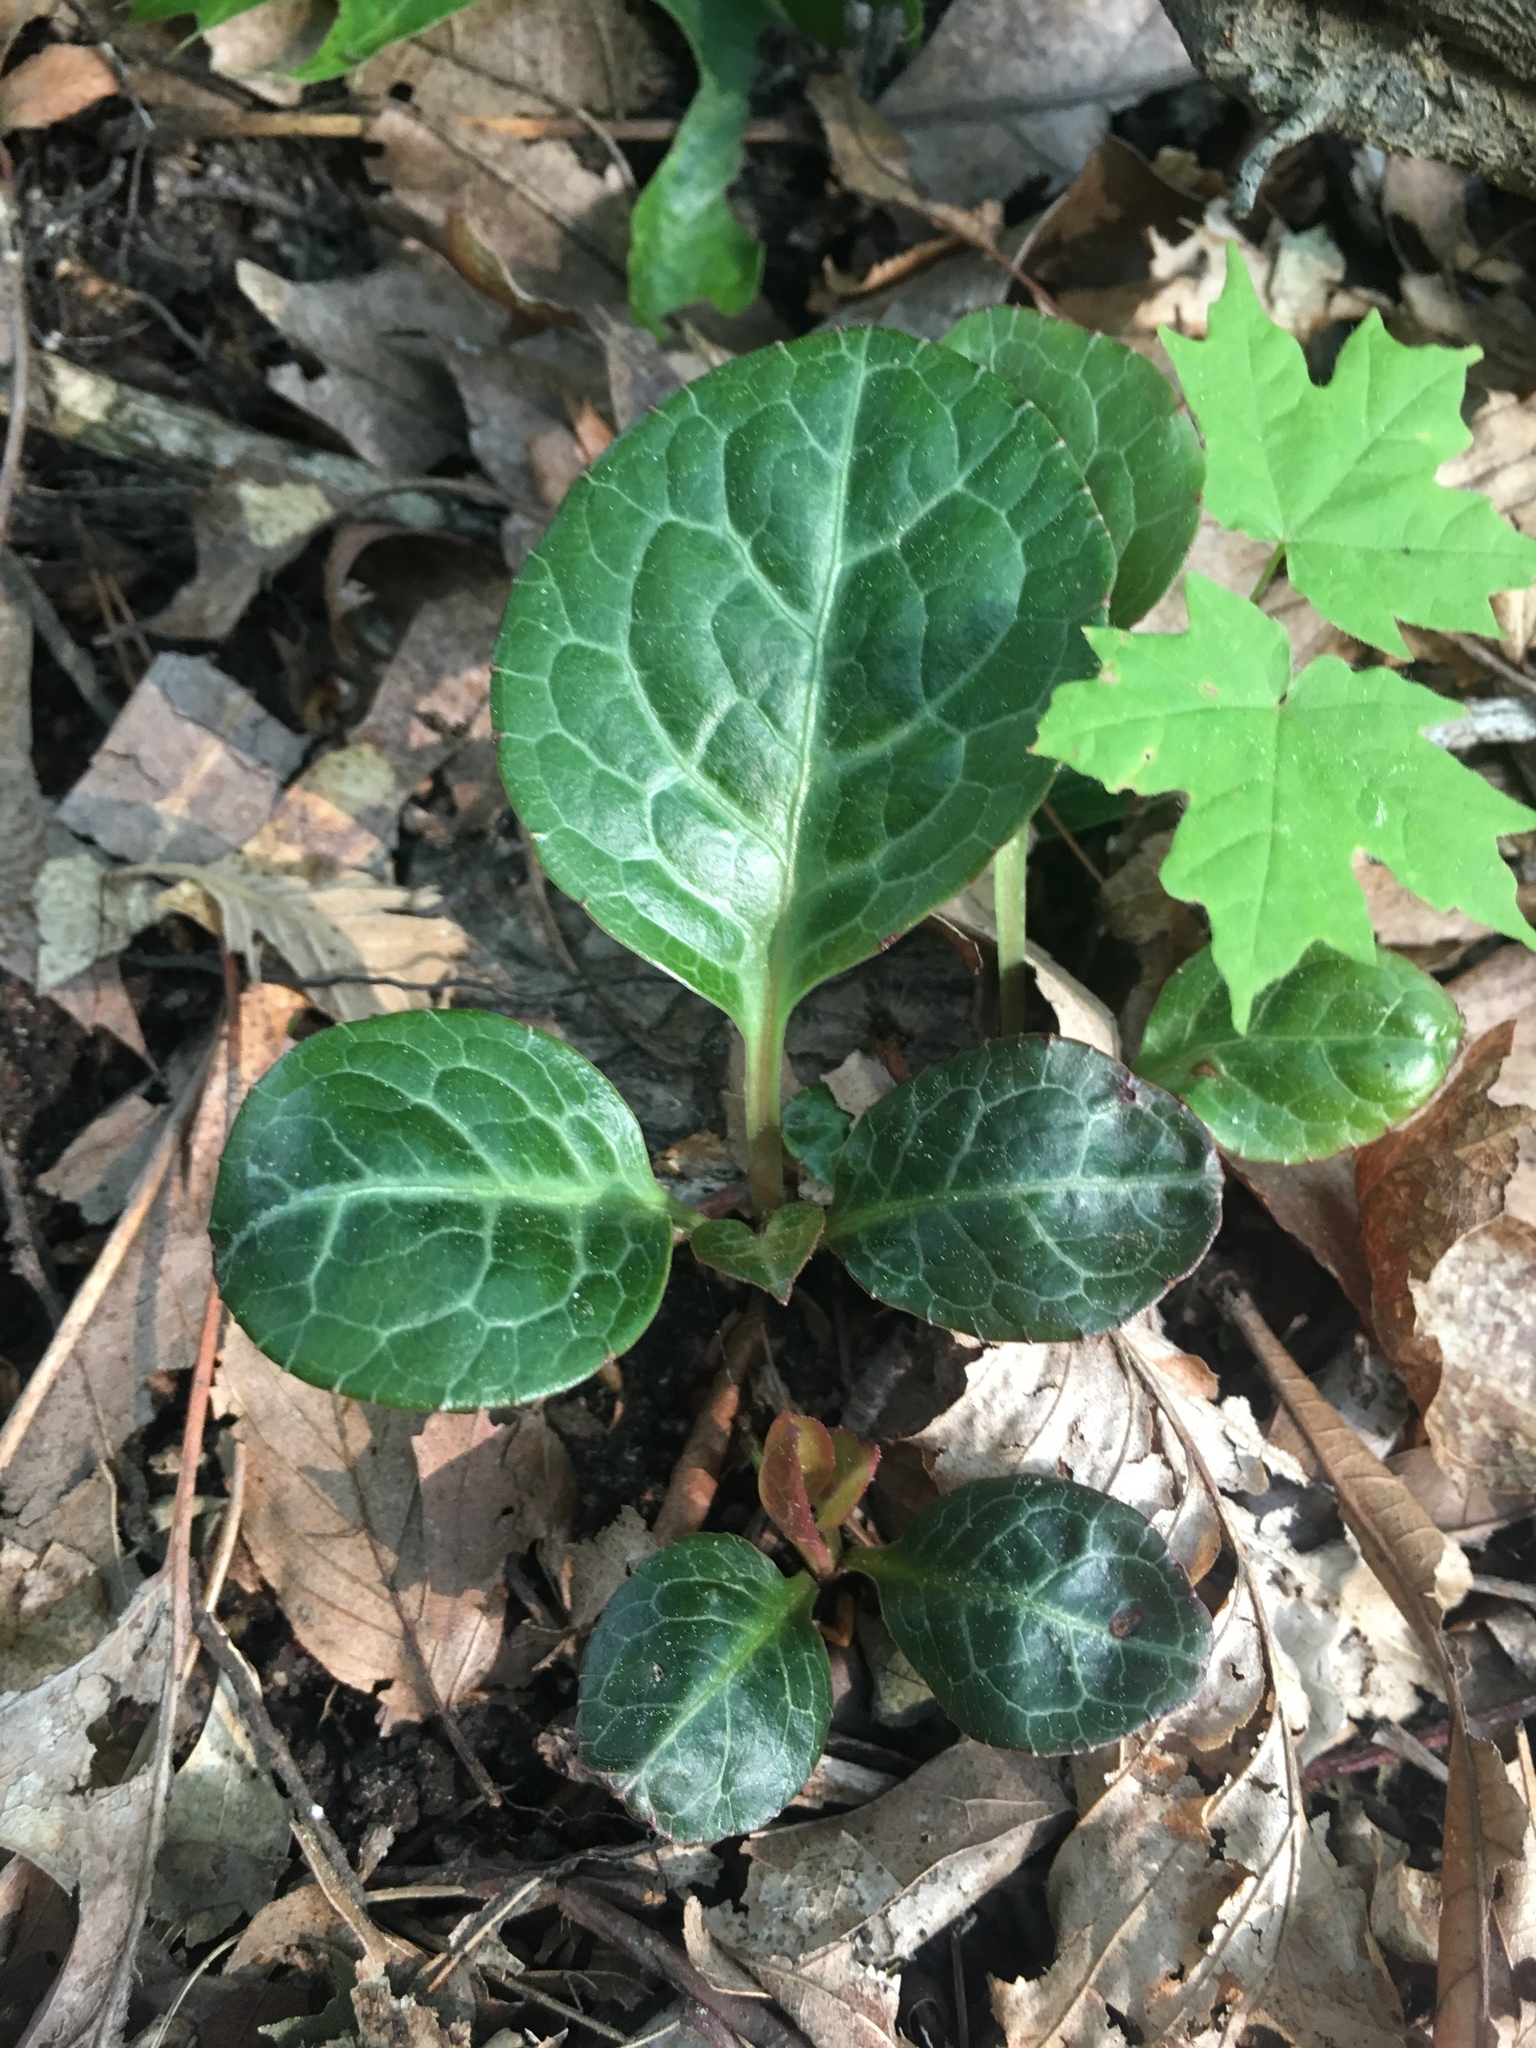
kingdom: Plantae
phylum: Tracheophyta
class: Magnoliopsida
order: Ericales
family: Ericaceae
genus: Pyrola
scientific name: Pyrola americana
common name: American wintergreen
